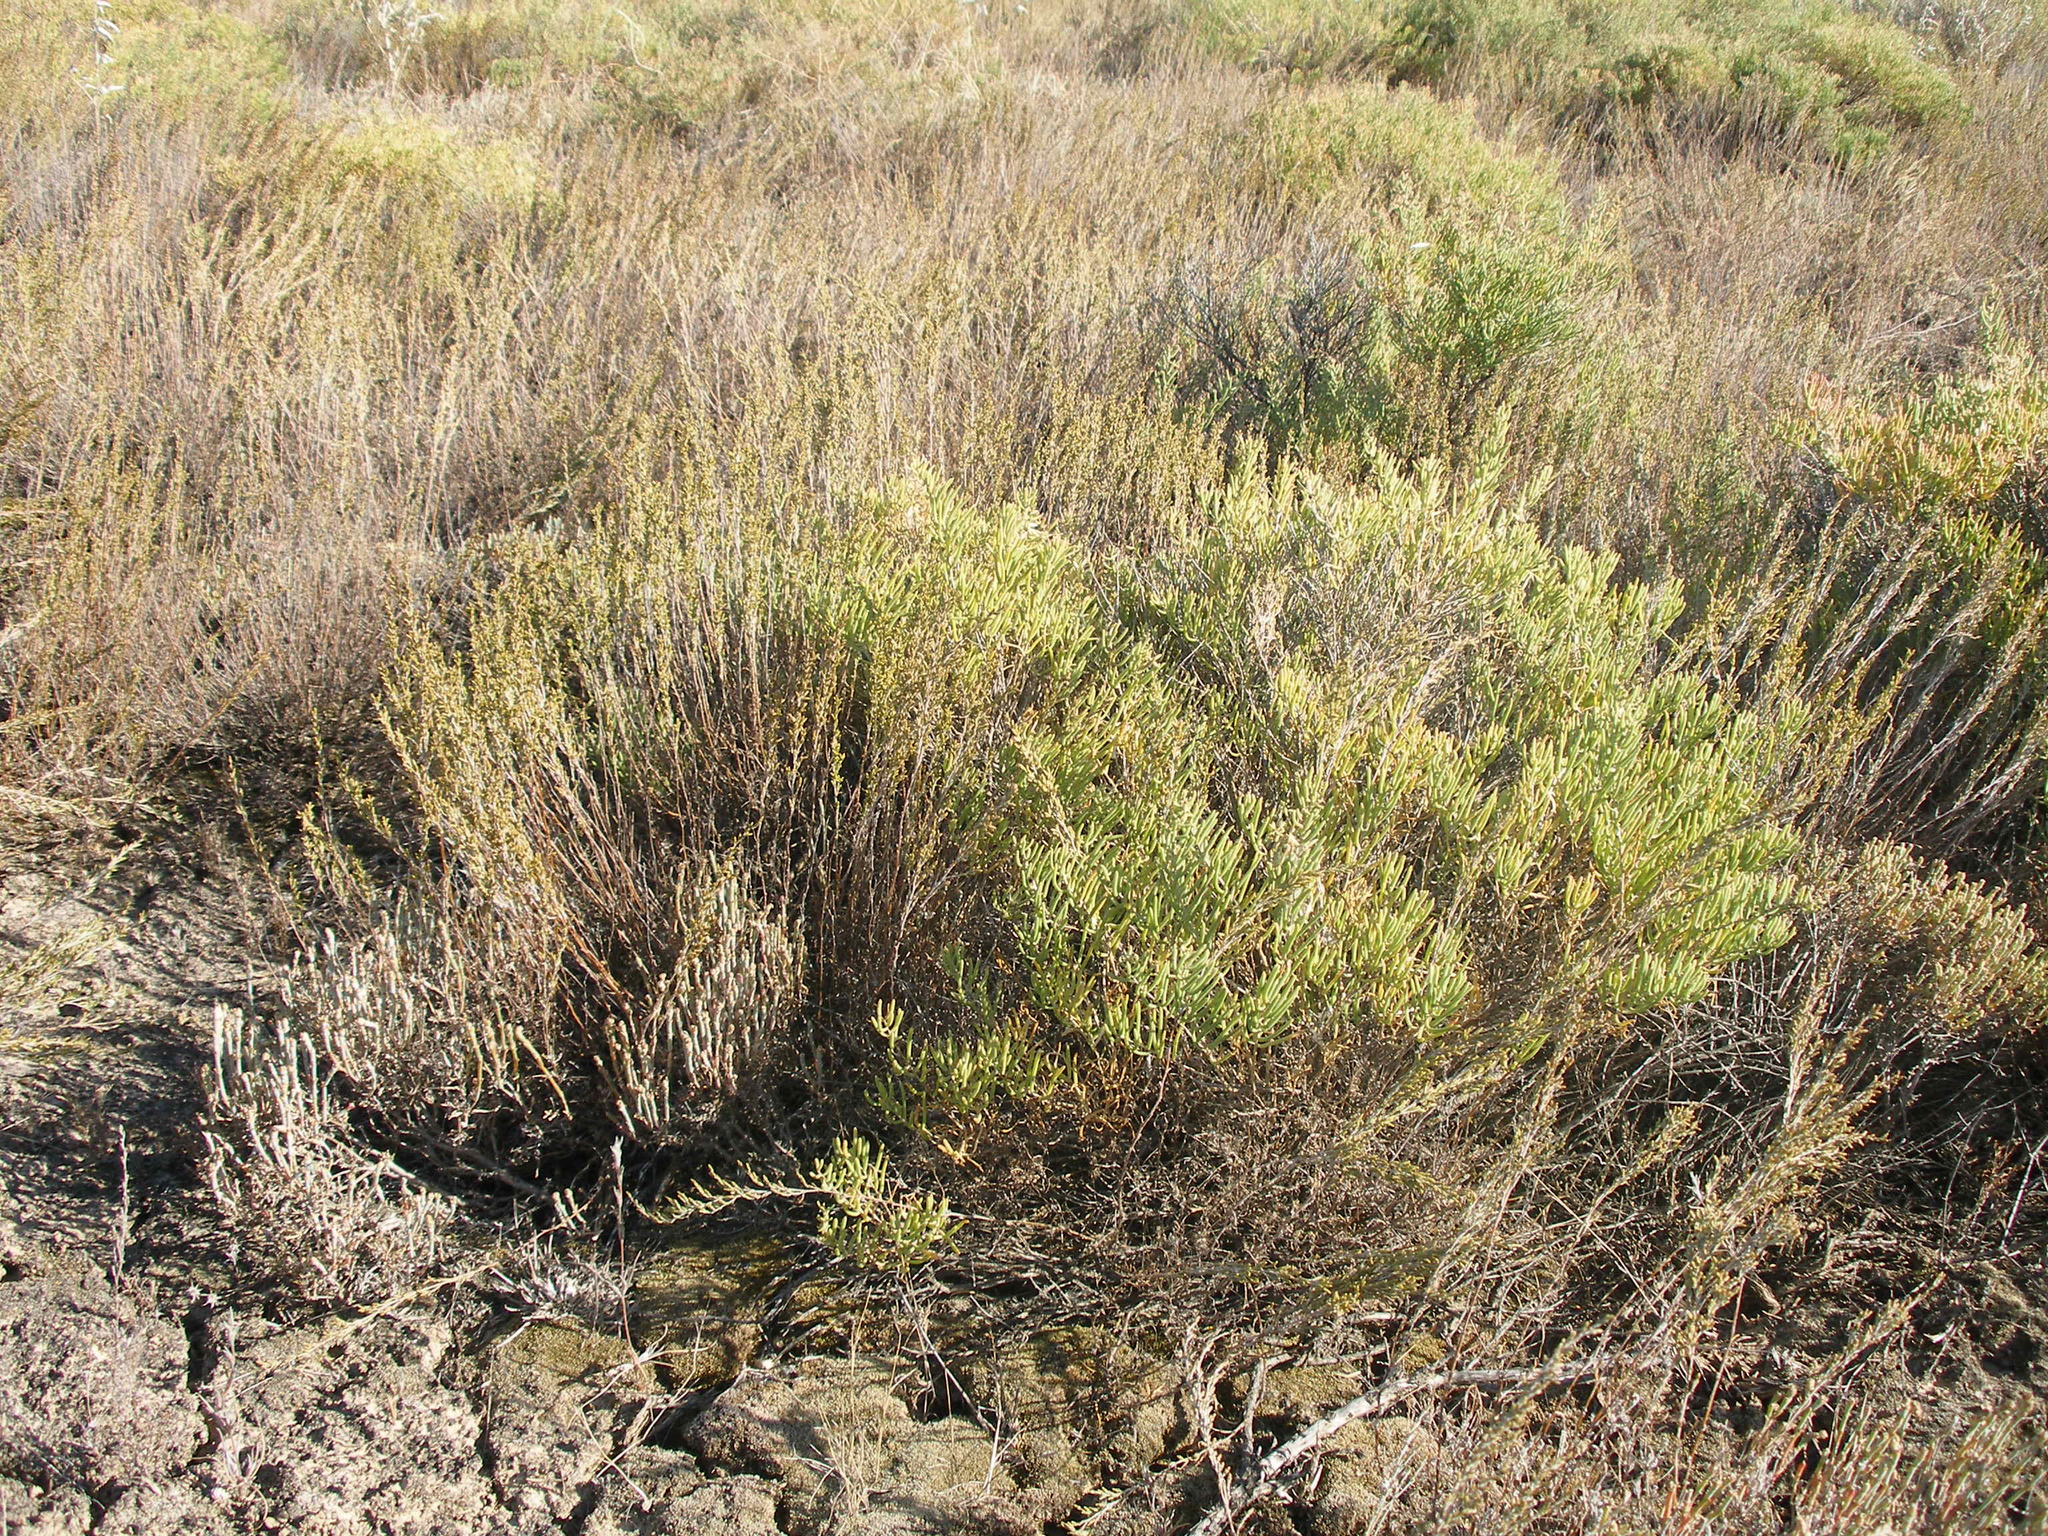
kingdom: Plantae
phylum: Tracheophyta
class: Magnoliopsida
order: Caryophyllales
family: Amaranthaceae
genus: Suaeda
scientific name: Suaeda physophora
